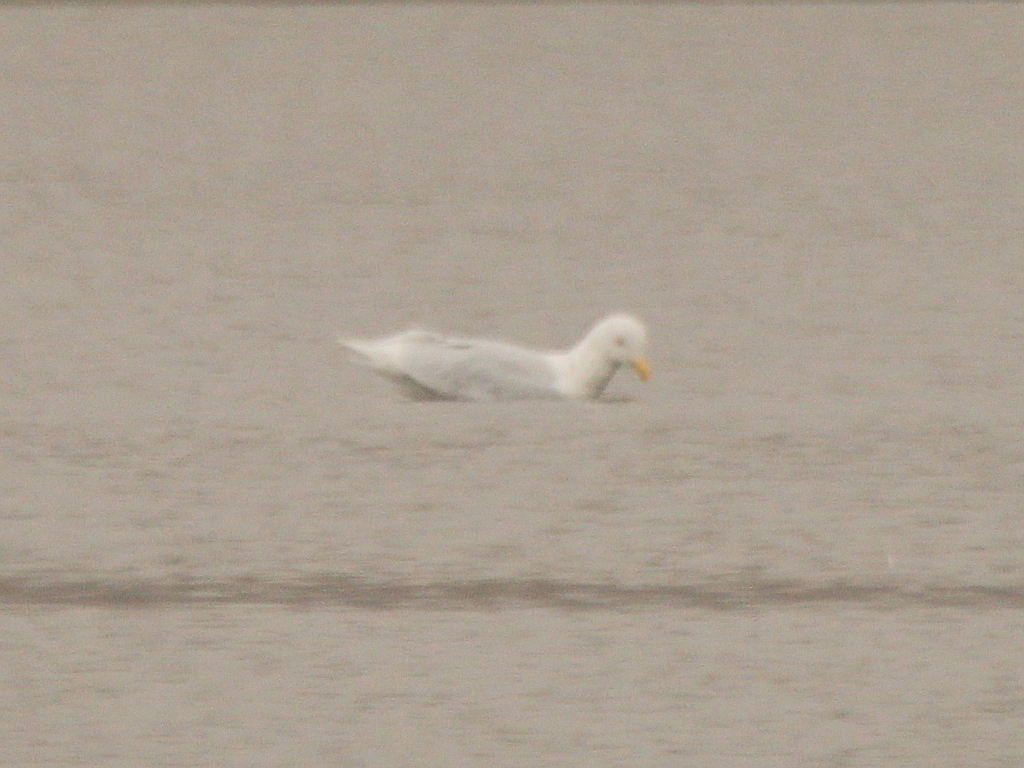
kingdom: Animalia
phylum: Chordata
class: Aves
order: Charadriiformes
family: Laridae
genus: Larus
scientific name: Larus hyperboreus
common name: Glaucous gull
